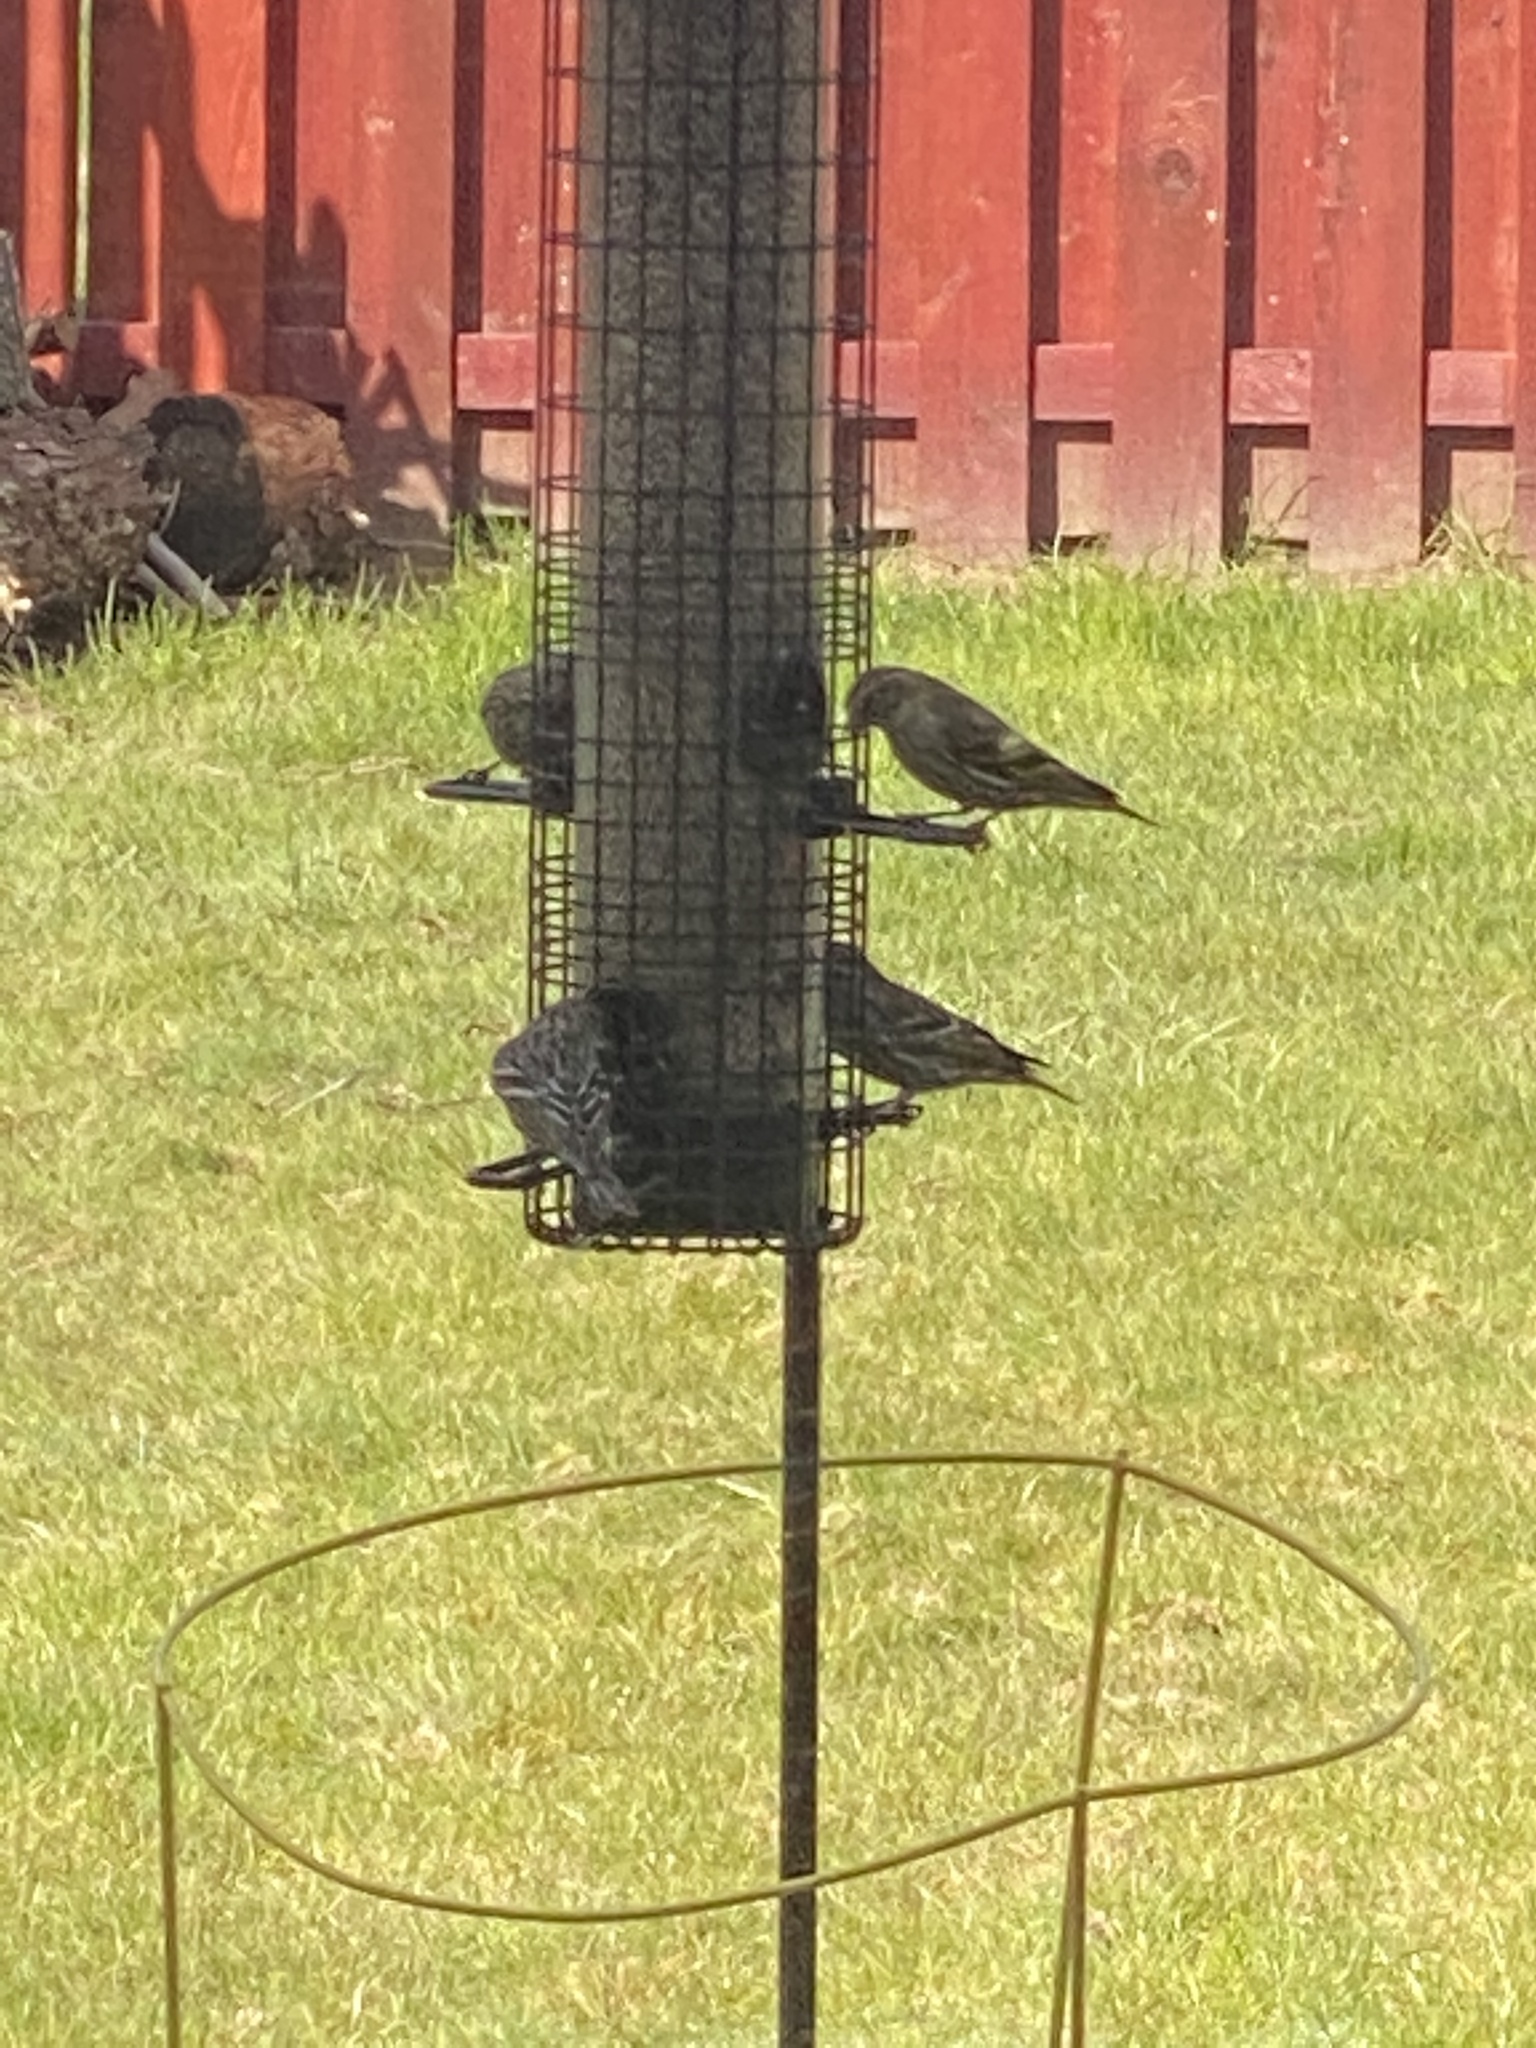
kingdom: Animalia
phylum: Chordata
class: Aves
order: Passeriformes
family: Fringillidae
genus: Spinus
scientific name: Spinus pinus
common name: Pine siskin
